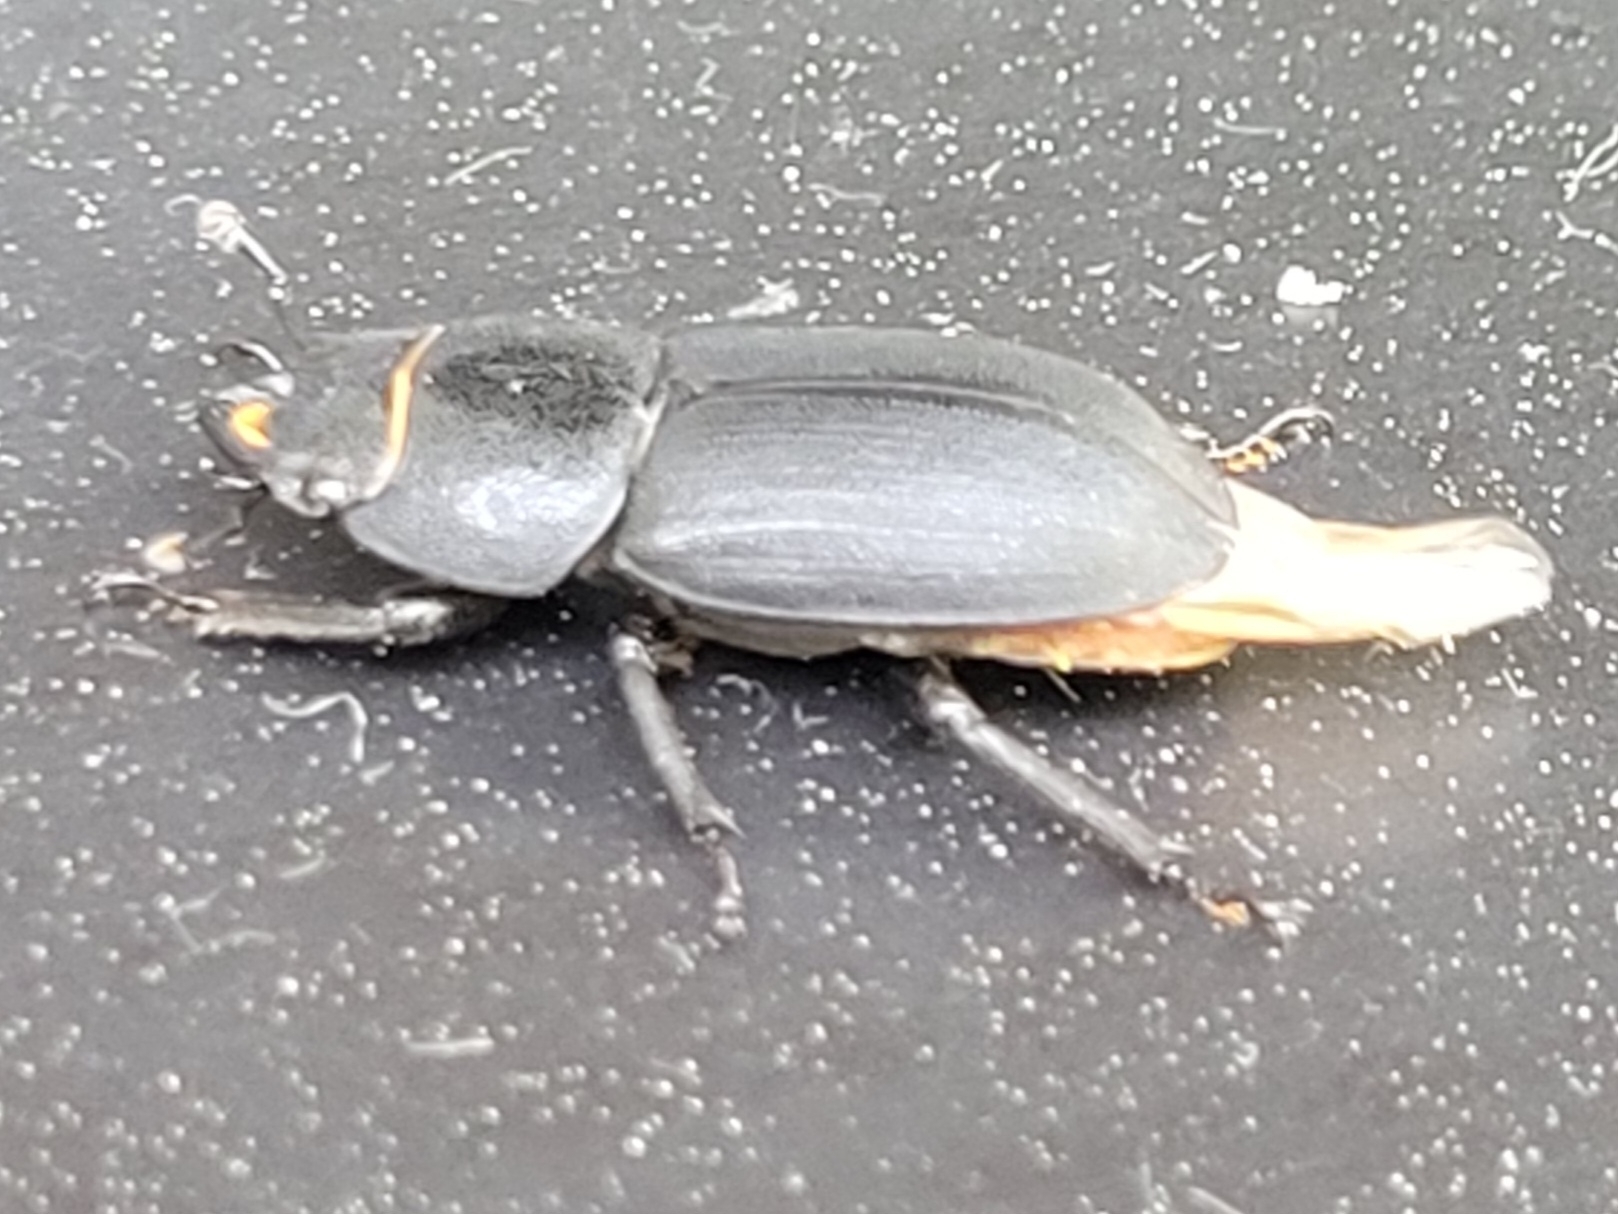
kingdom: Animalia
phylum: Arthropoda
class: Insecta
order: Coleoptera
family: Lucanidae
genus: Dorcus
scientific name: Dorcus parallelipipedus
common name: Lesser stag beetle
